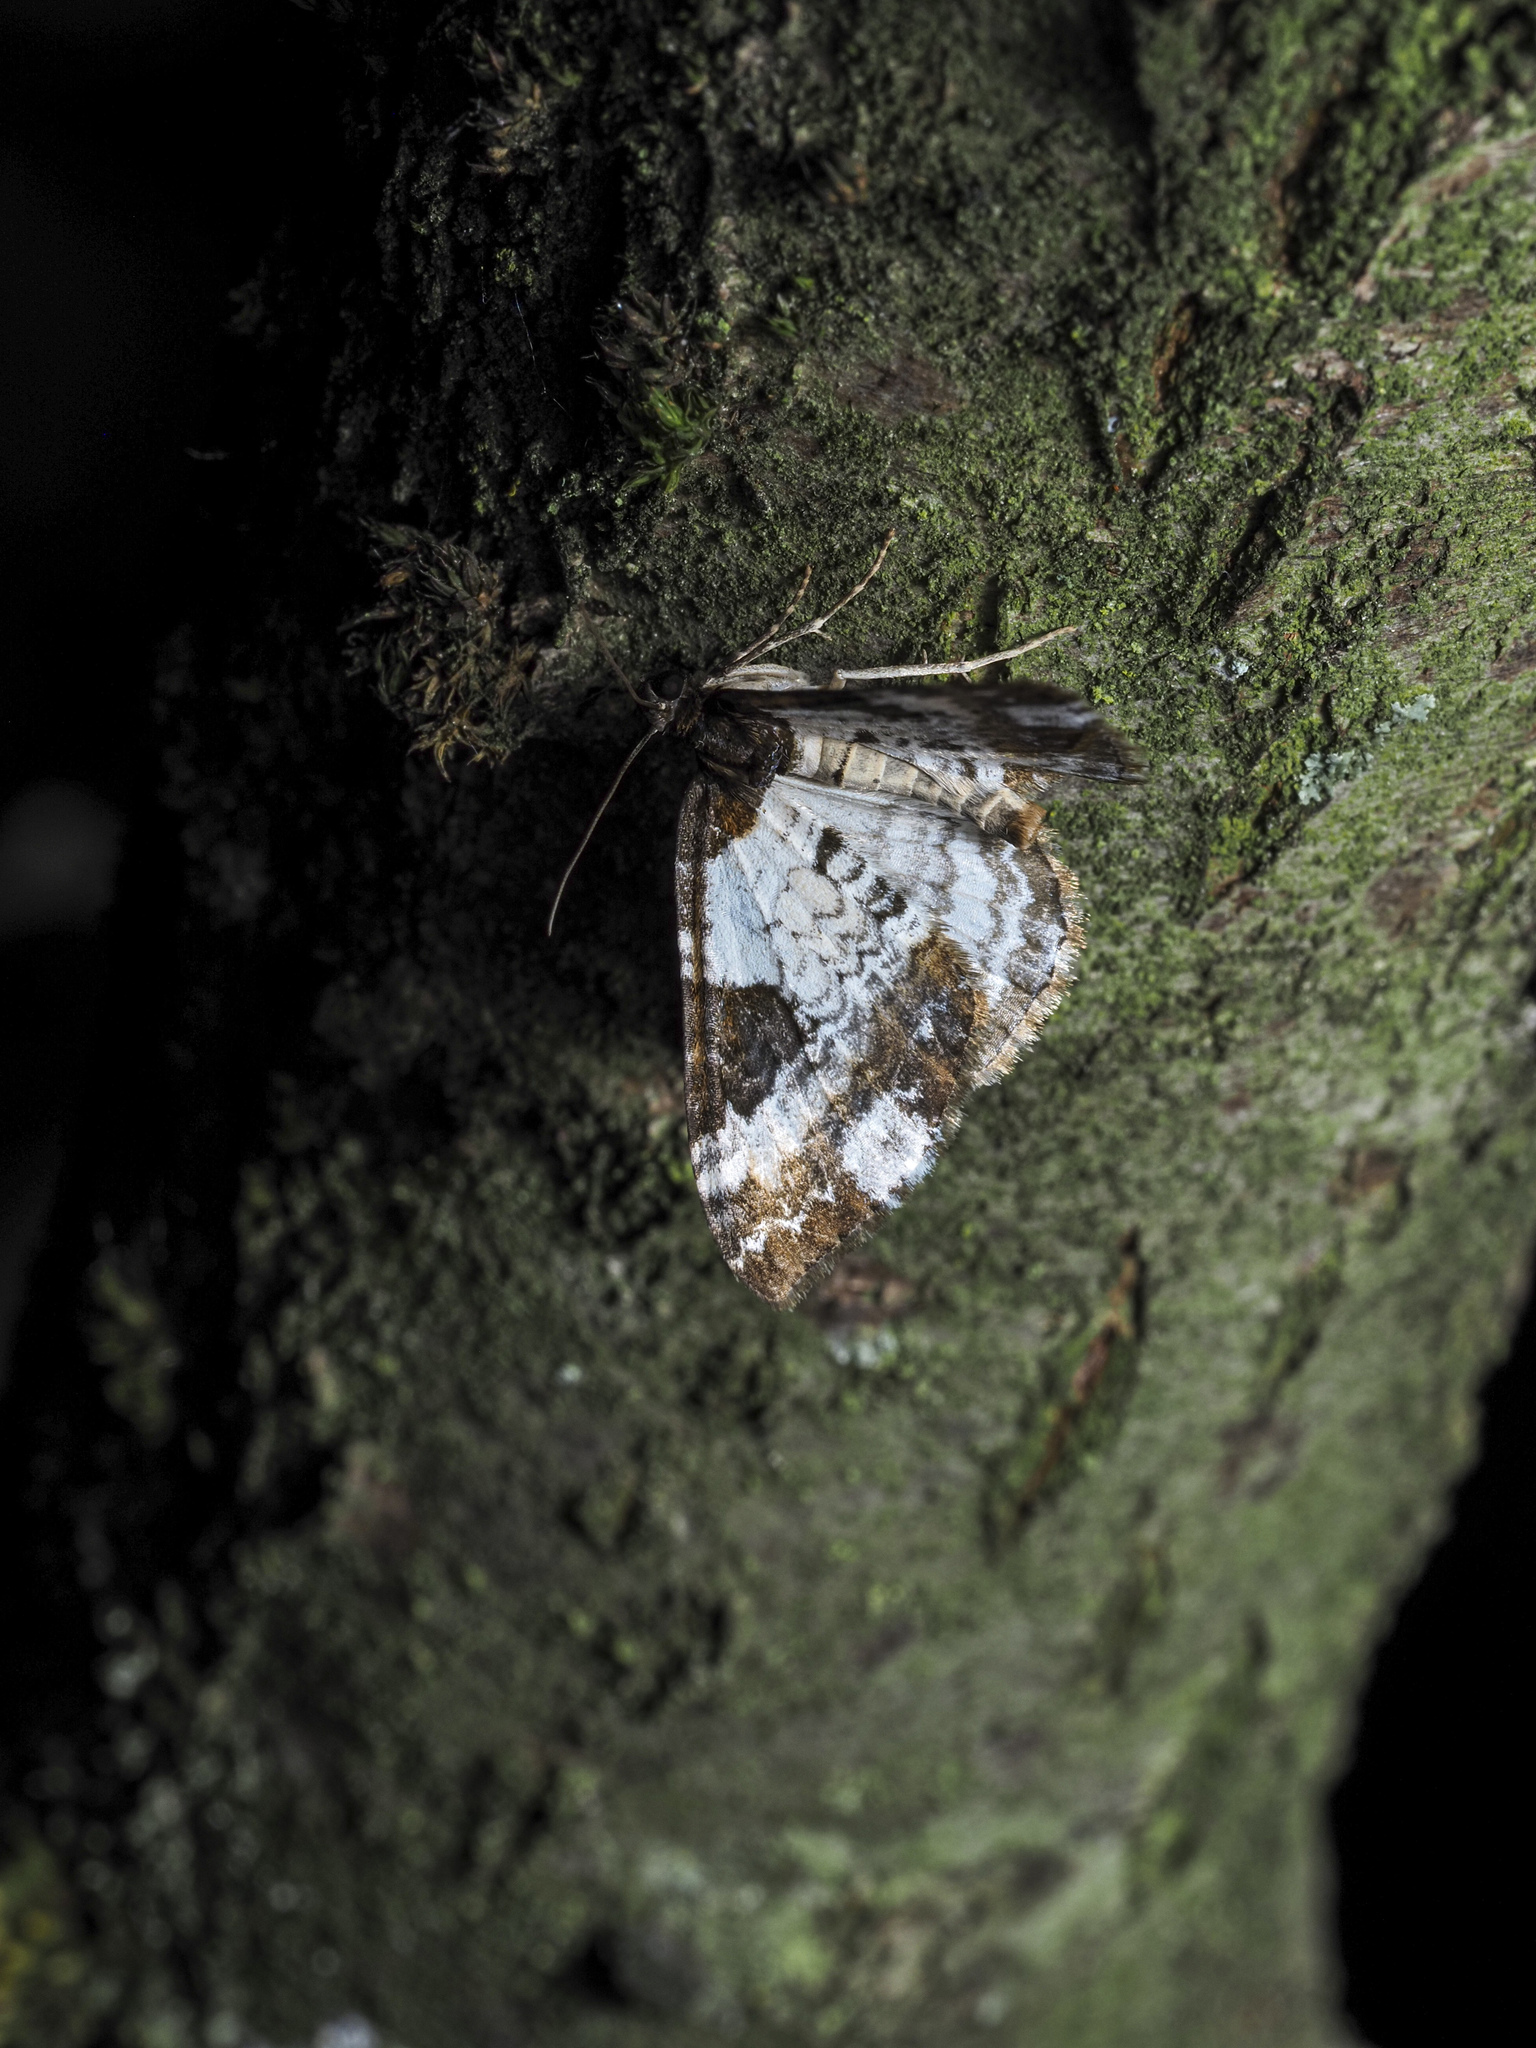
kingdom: Animalia
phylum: Arthropoda
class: Insecta
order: Lepidoptera
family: Geometridae
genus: Melanthia
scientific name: Melanthia procellata
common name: Pretty chalk carpet
